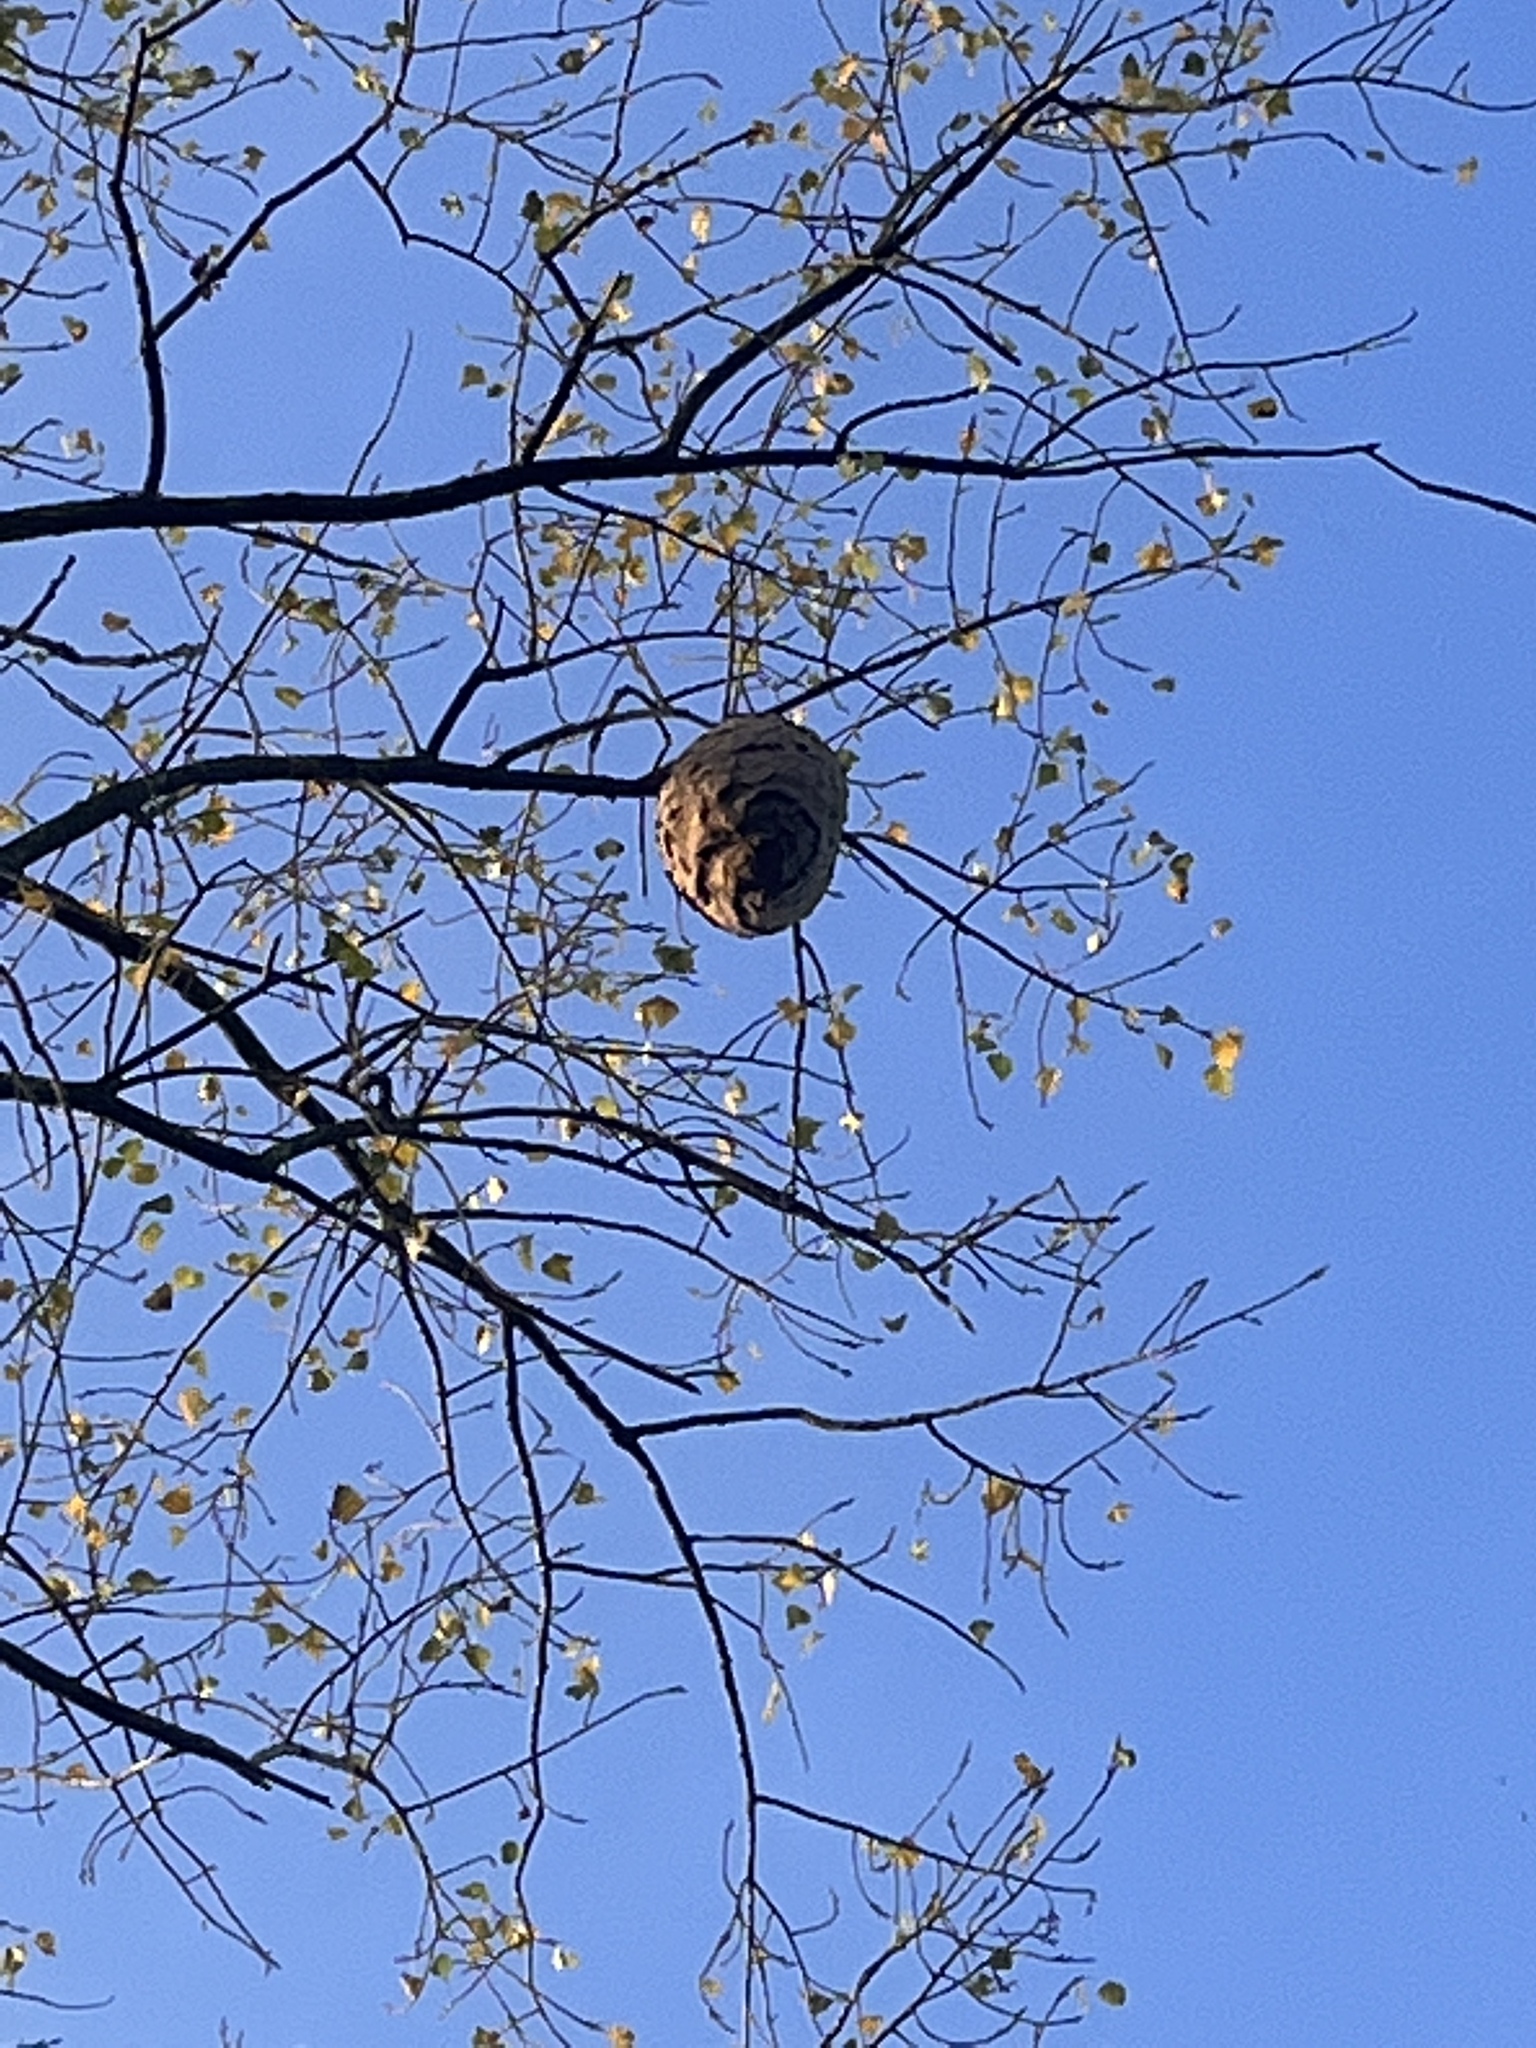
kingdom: Animalia
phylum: Arthropoda
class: Insecta
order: Hymenoptera
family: Vespidae
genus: Vespa
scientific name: Vespa velutina
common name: Asian hornet
